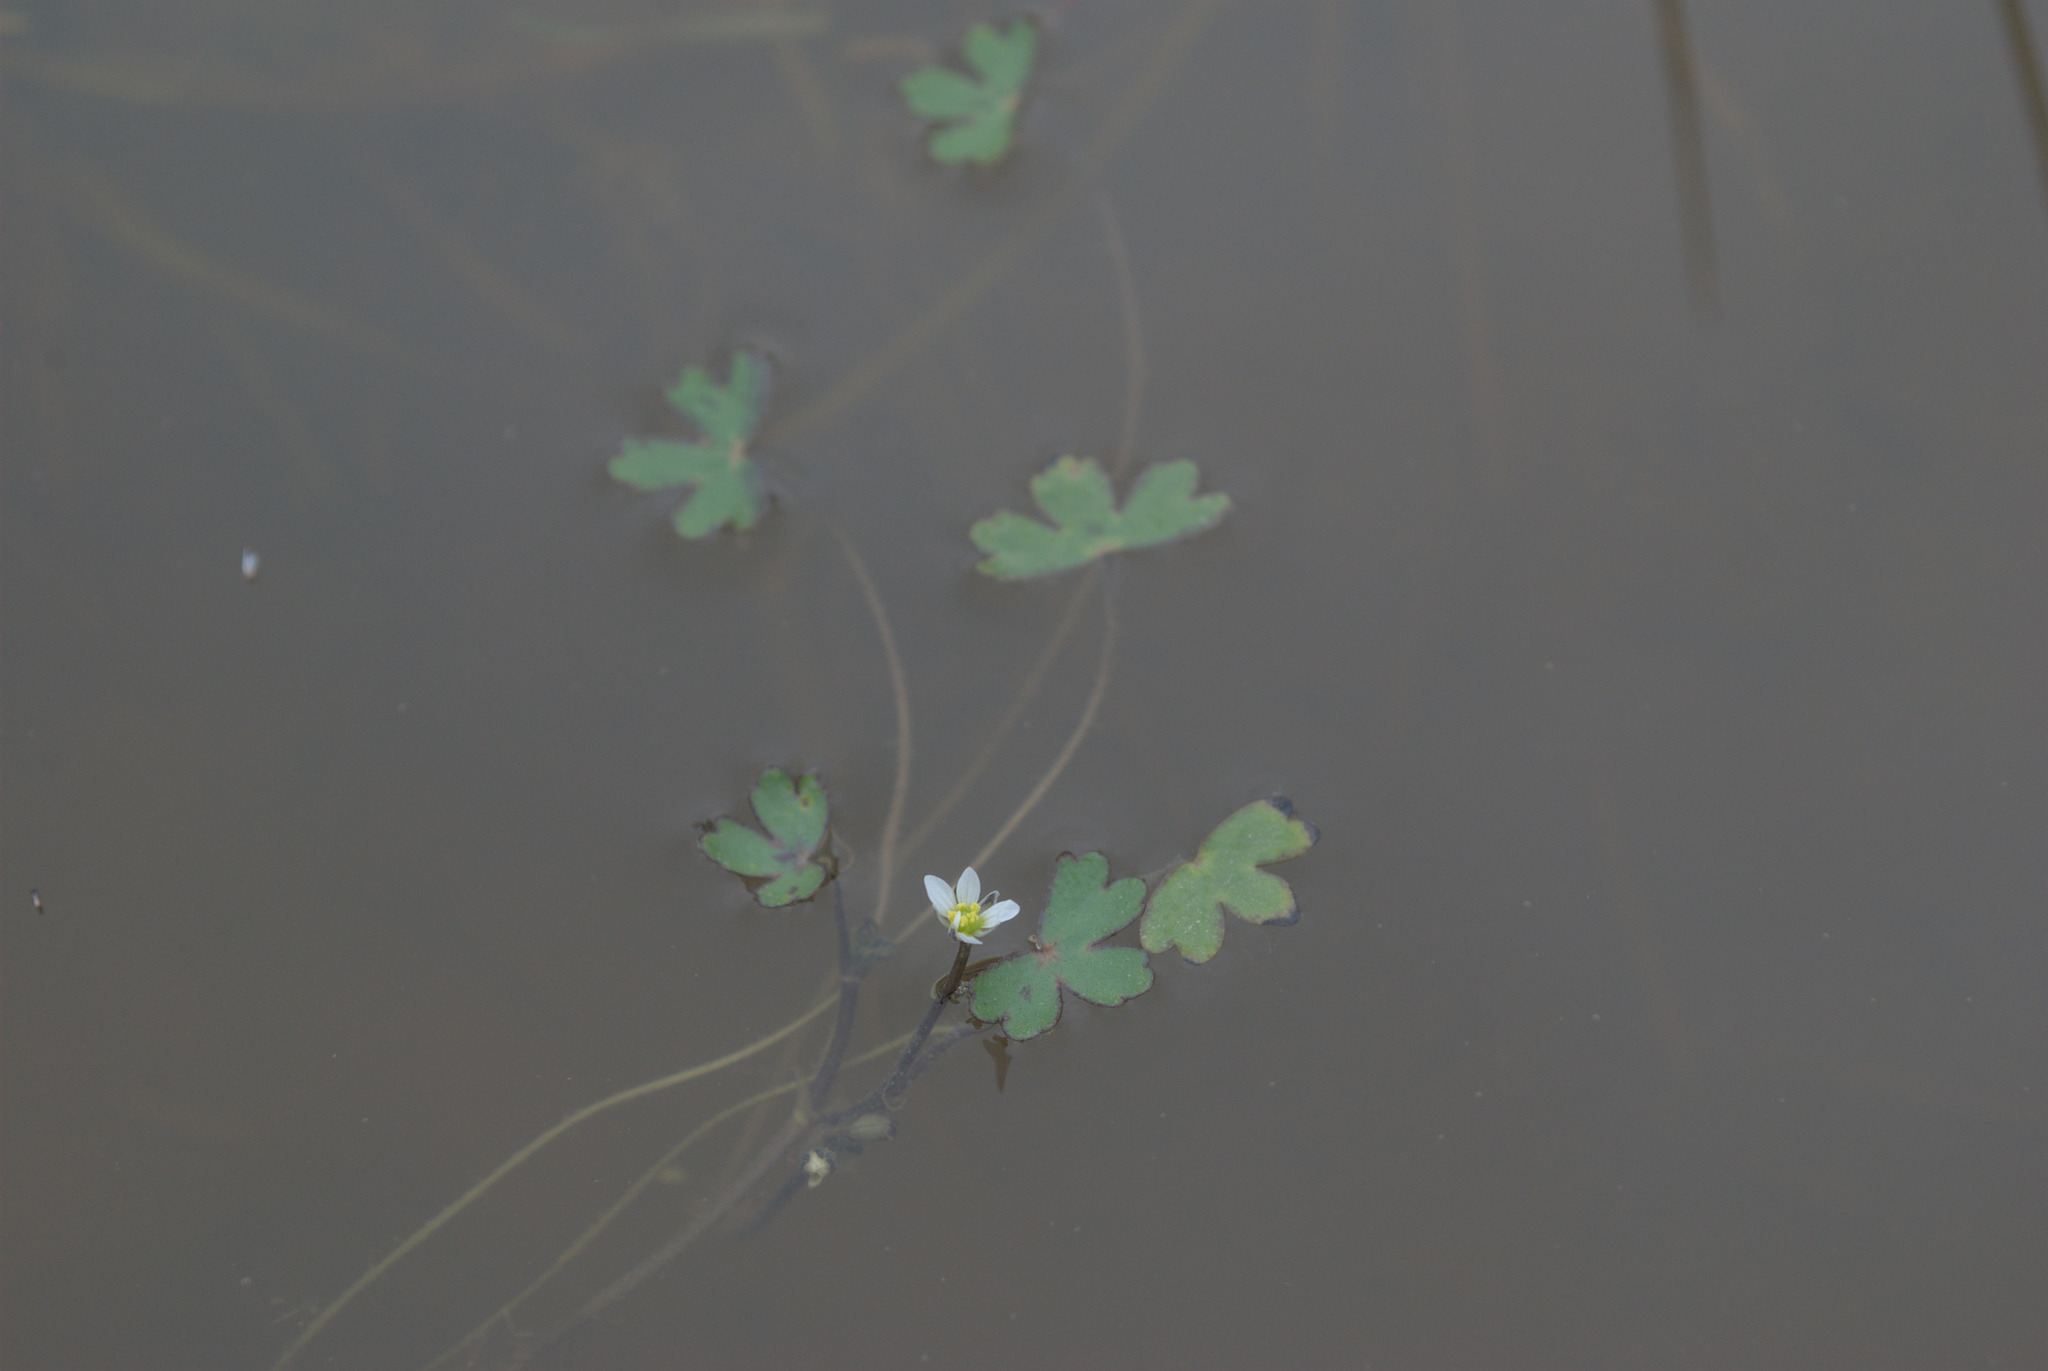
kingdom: Plantae
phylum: Tracheophyta
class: Magnoliopsida
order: Ranunculales
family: Ranunculaceae
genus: Ranunculus
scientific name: Ranunculus tripartitus
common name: Three-lobed crowfoot
